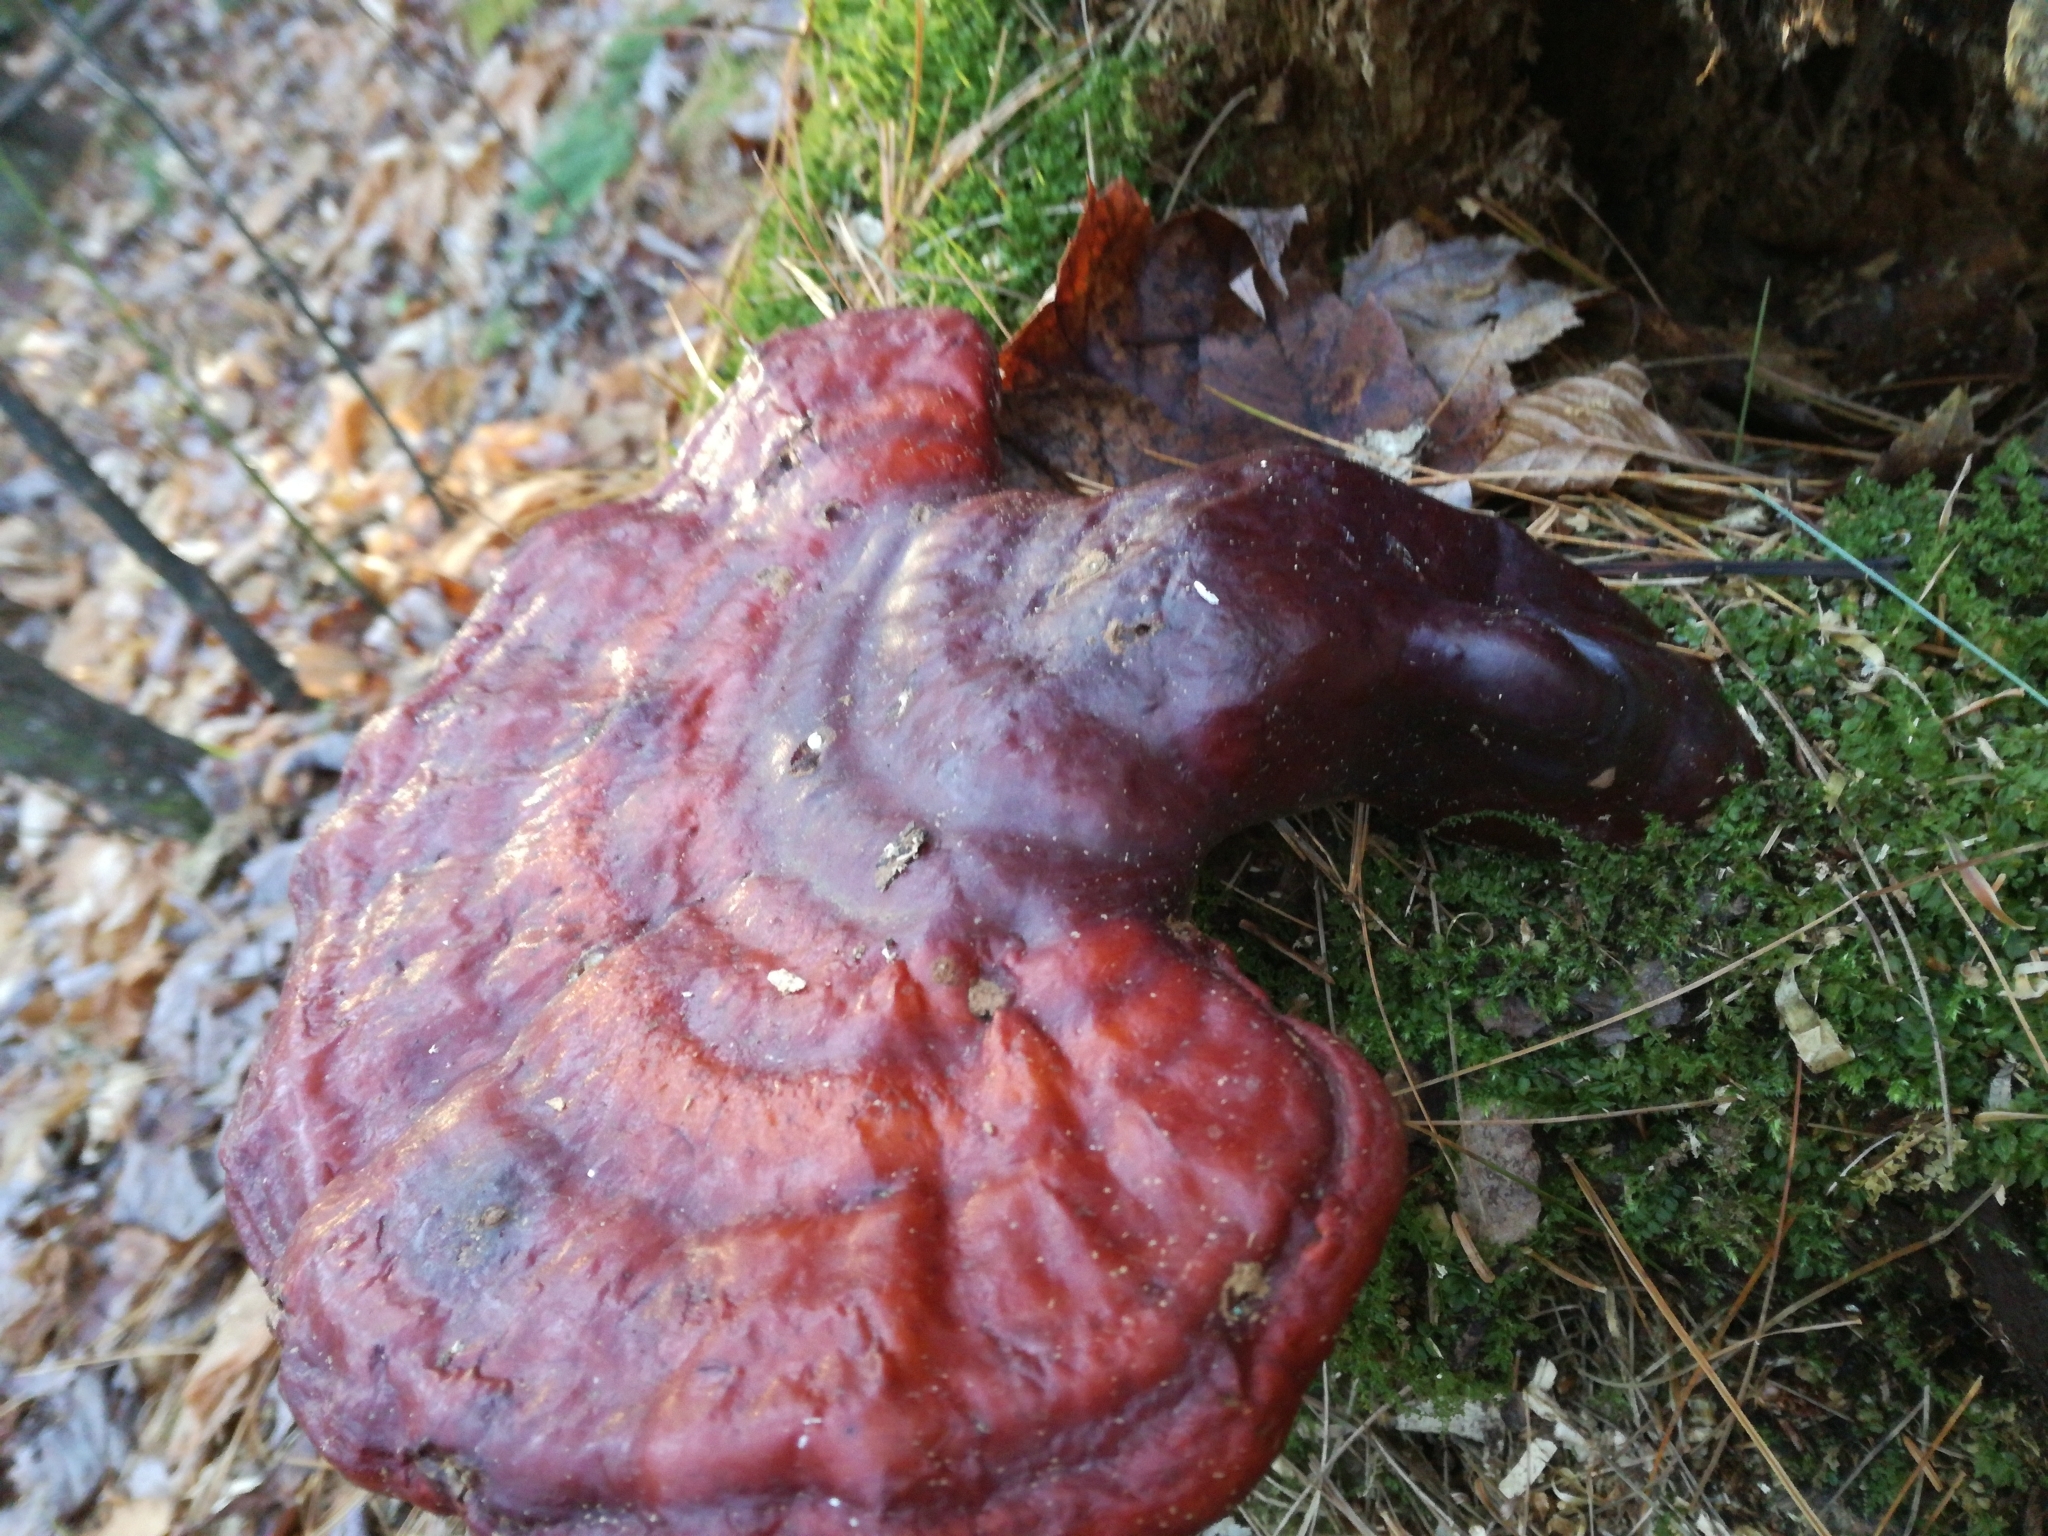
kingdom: Fungi
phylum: Basidiomycota
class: Agaricomycetes
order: Polyporales
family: Polyporaceae
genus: Ganoderma
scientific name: Ganoderma tsugae
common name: Hemlock varnish shelf
